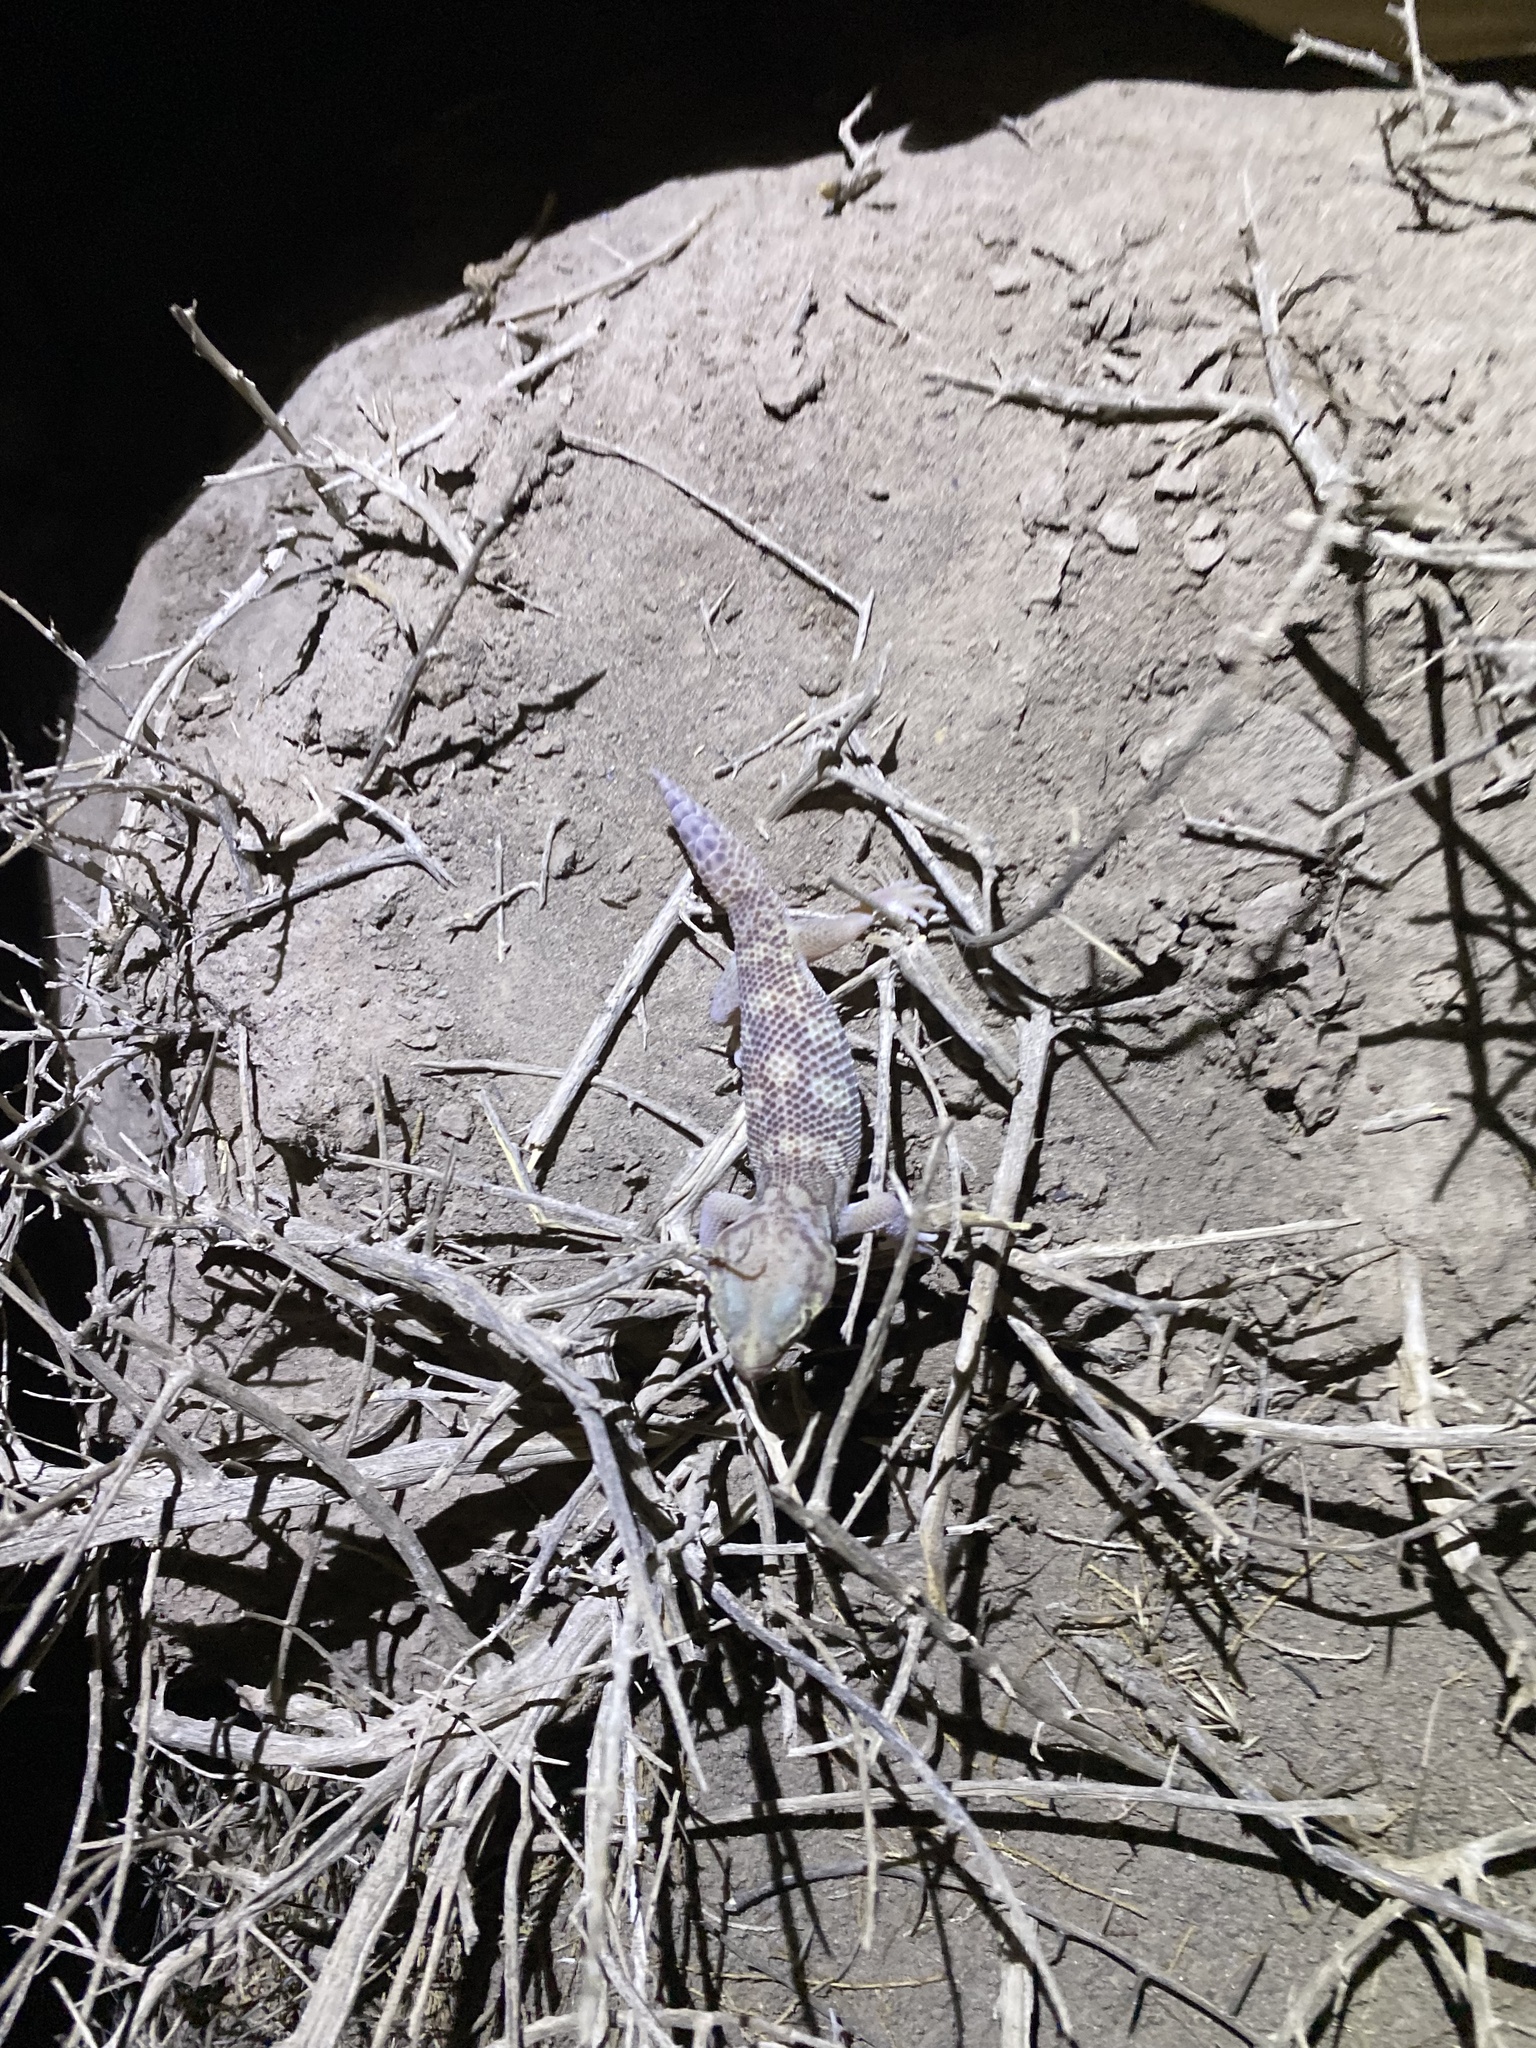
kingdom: Animalia
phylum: Chordata
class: Squamata
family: Sphaerodactylidae
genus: Teratoscincus
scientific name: Teratoscincus bedriagai
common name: Bedriaga's plate-tailed gecko
